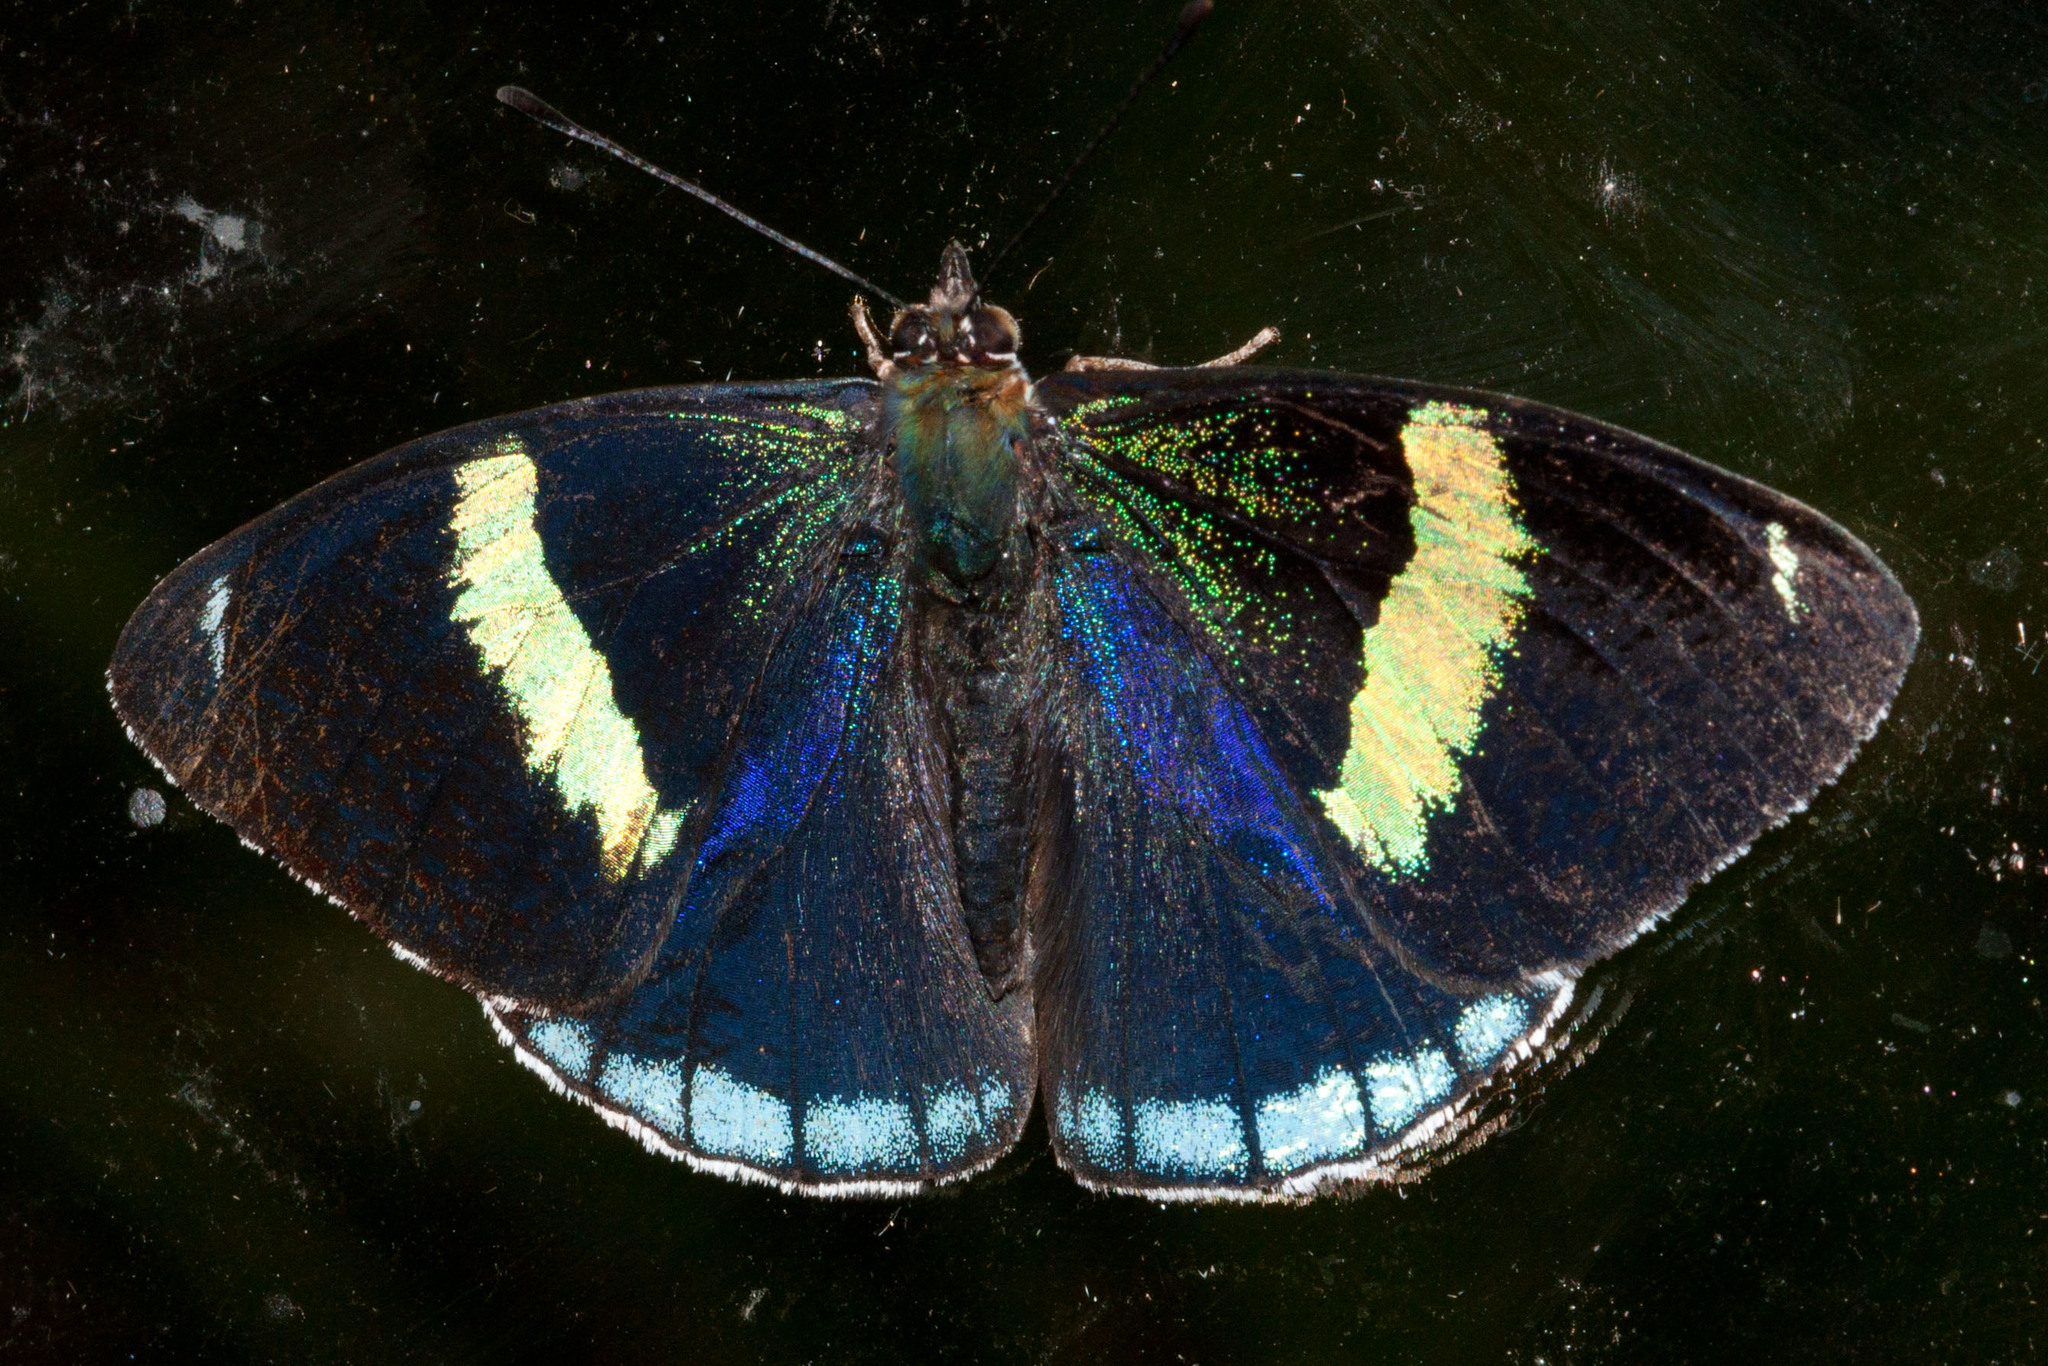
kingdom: Animalia
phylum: Arthropoda
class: Insecta
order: Lepidoptera
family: Nymphalidae
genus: Perisama
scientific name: Perisama bomplandii
